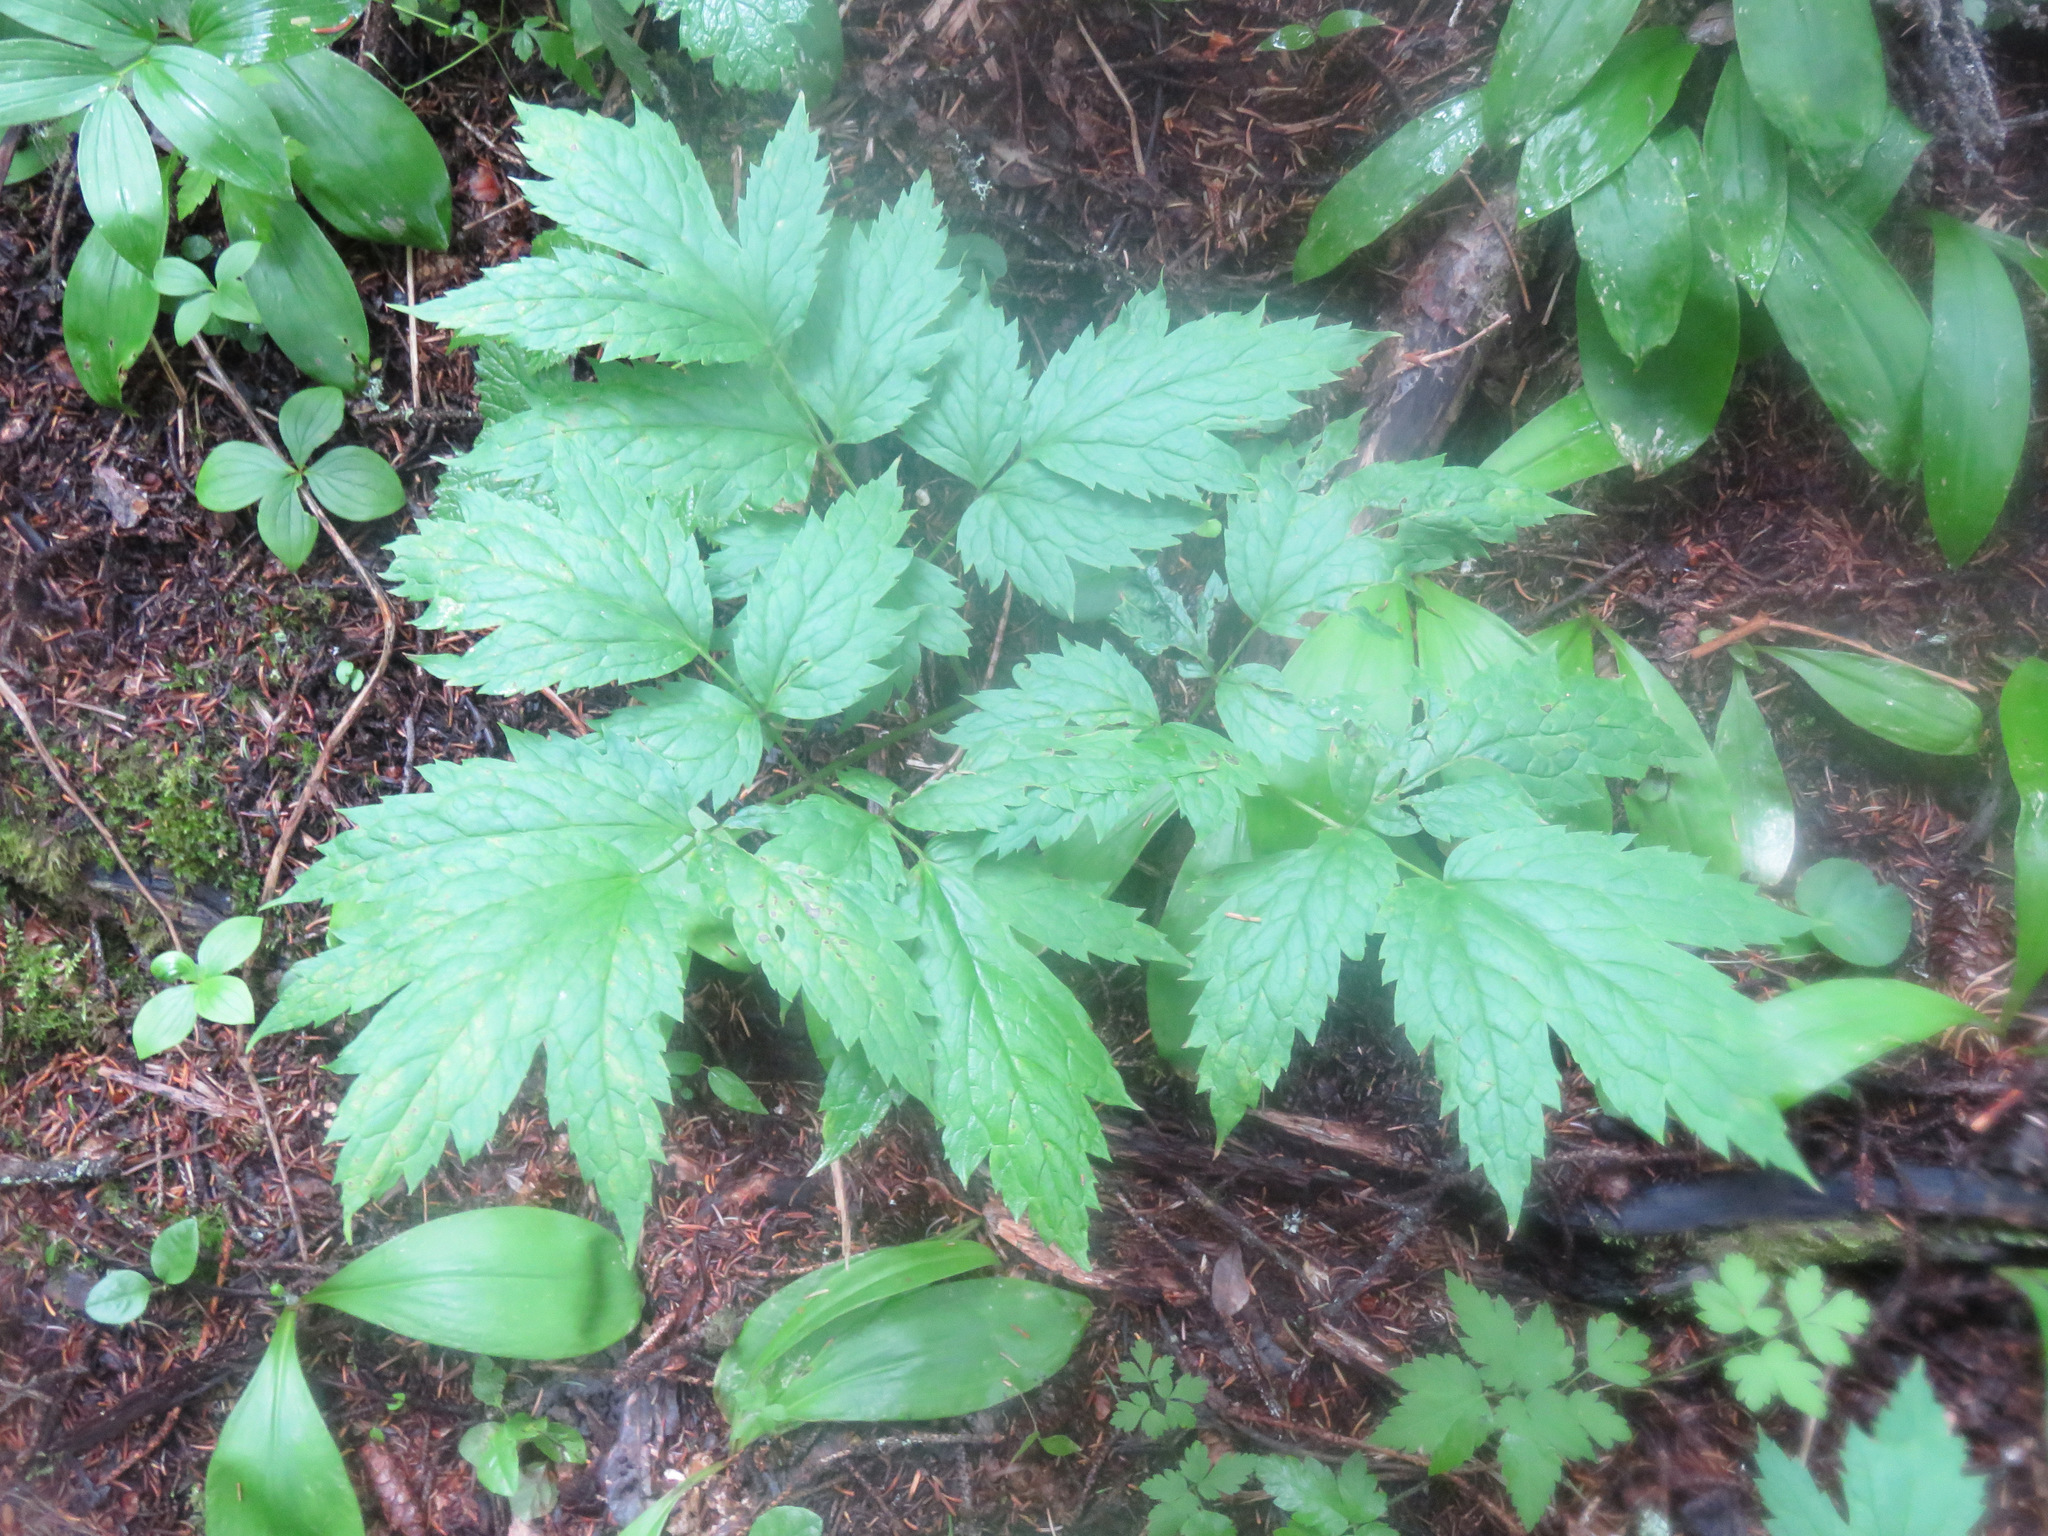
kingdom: Plantae
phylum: Tracheophyta
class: Magnoliopsida
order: Ranunculales
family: Ranunculaceae
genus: Actaea
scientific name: Actaea rubra
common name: Red baneberry
